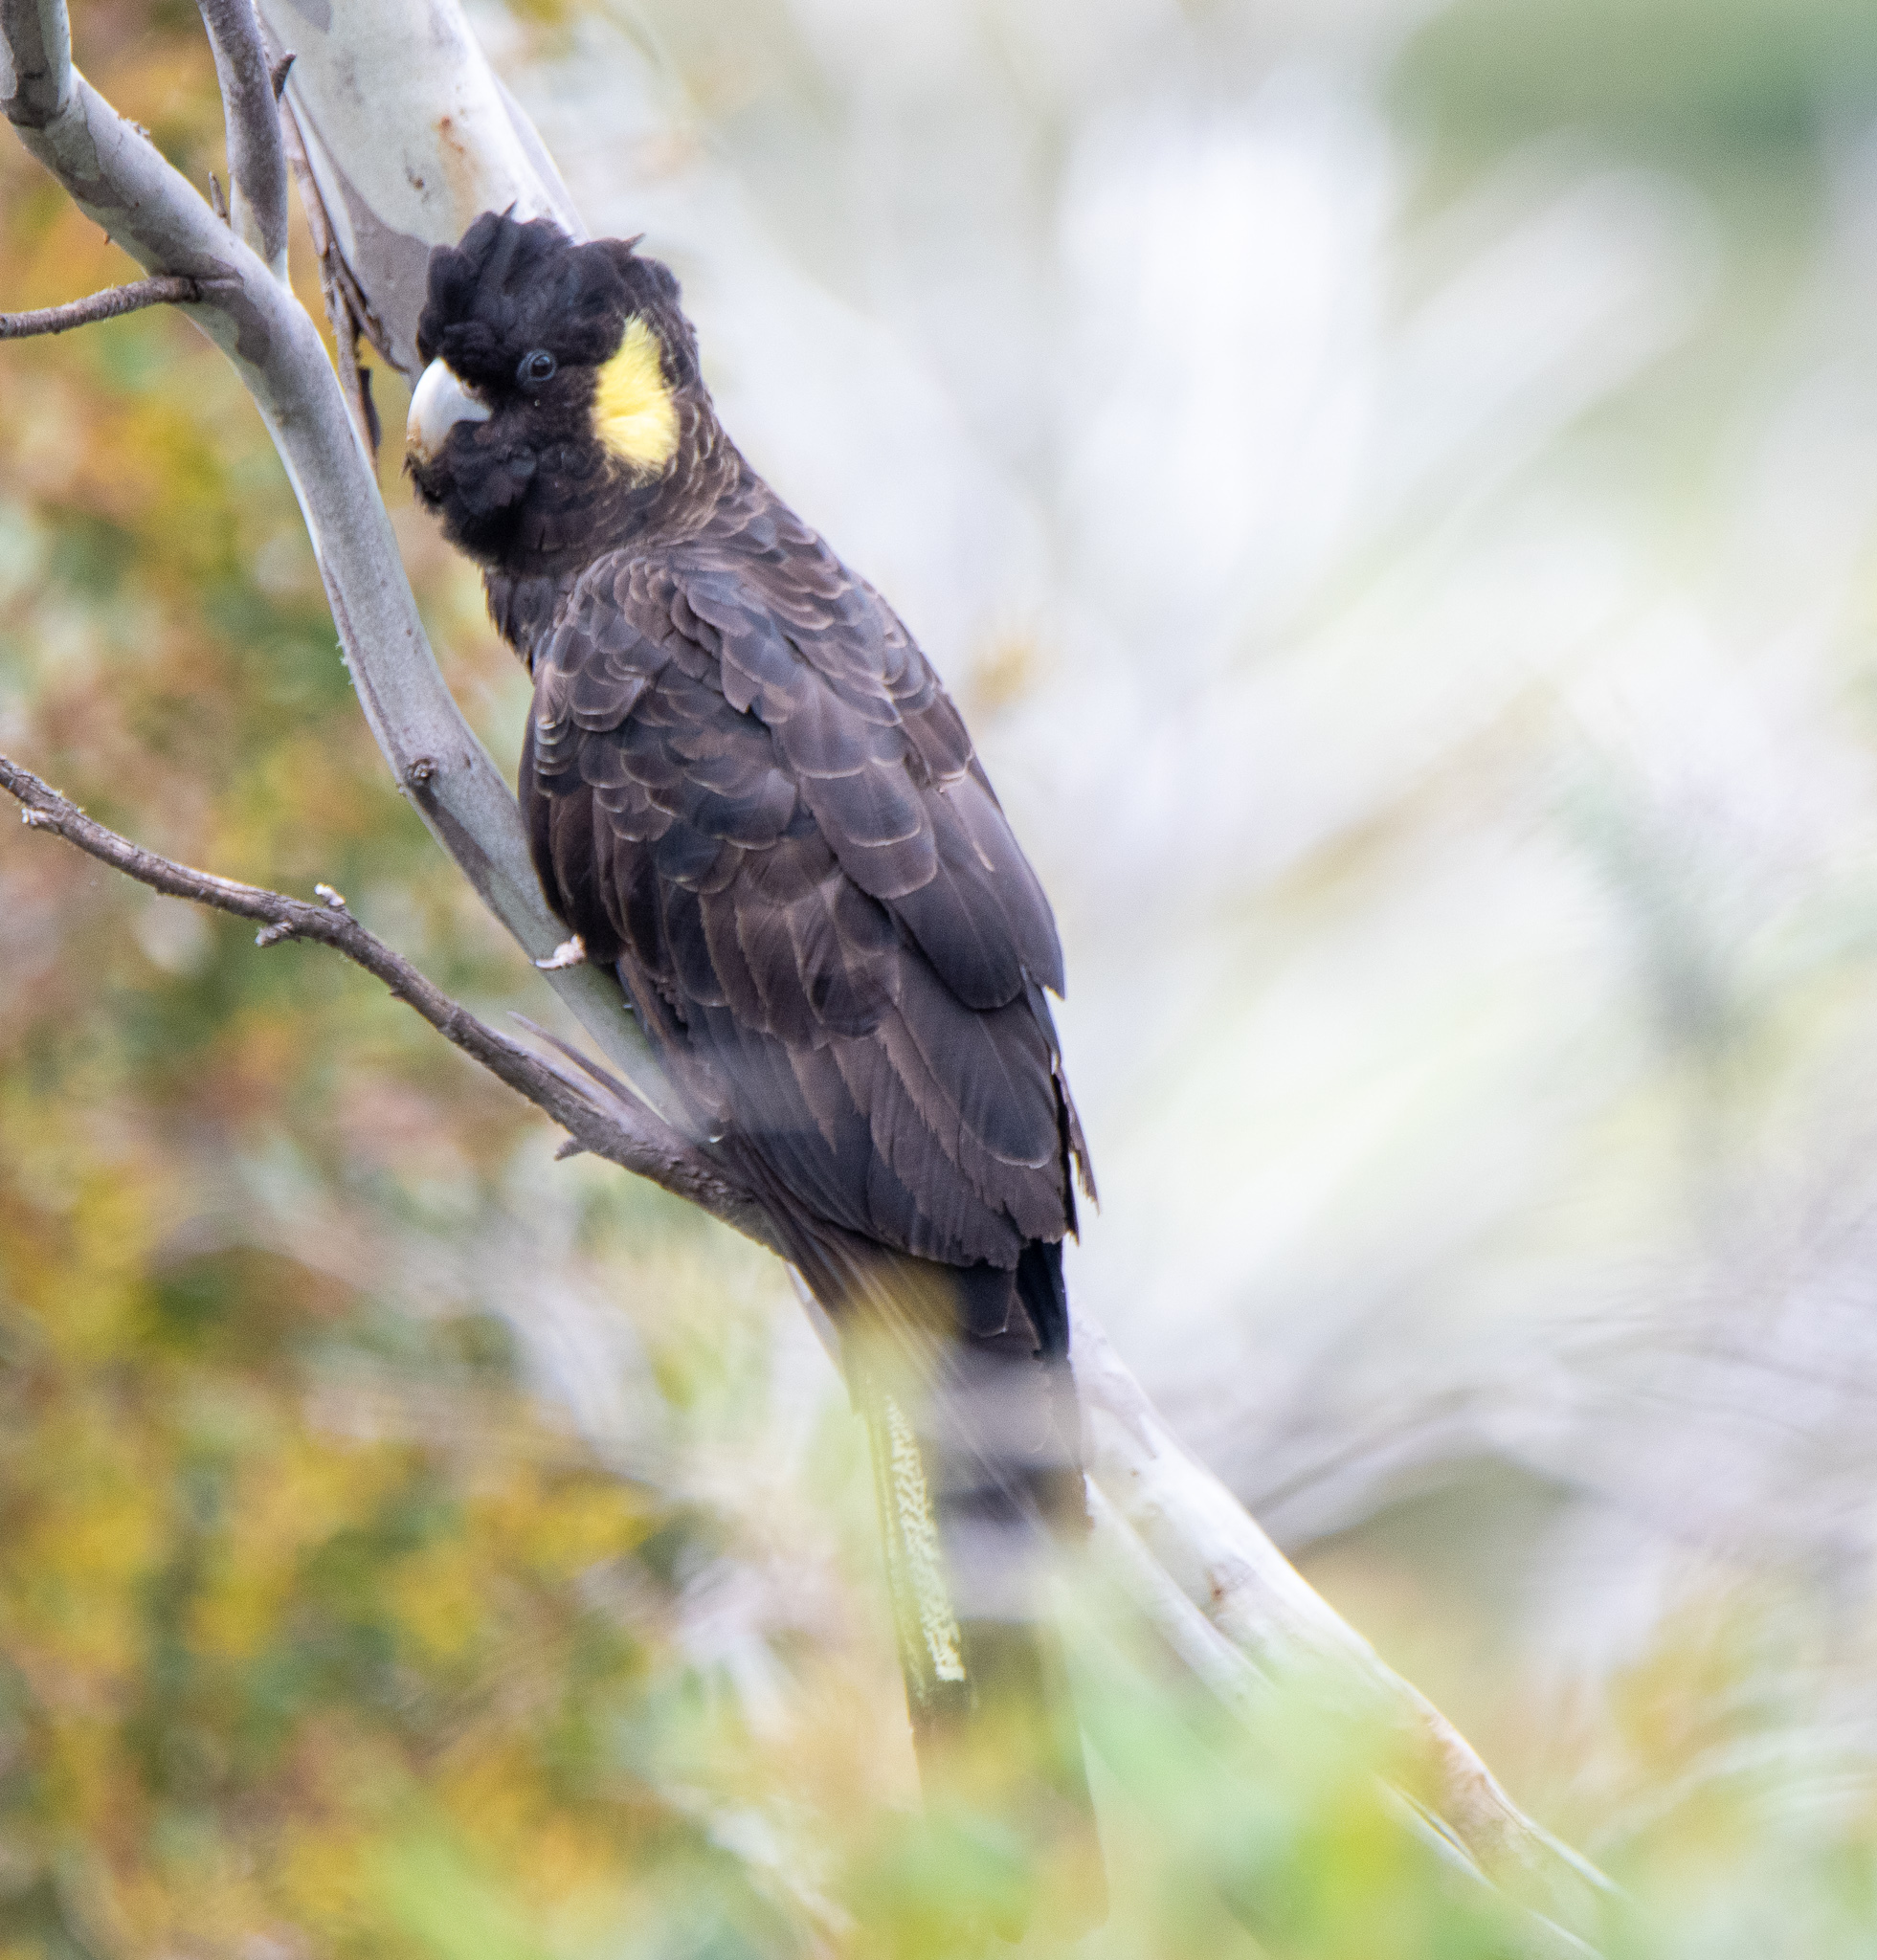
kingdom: Animalia
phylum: Chordata
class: Aves
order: Psittaciformes
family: Cacatuidae
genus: Zanda
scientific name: Zanda funerea
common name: Yellow-tailed black-cockatoo
